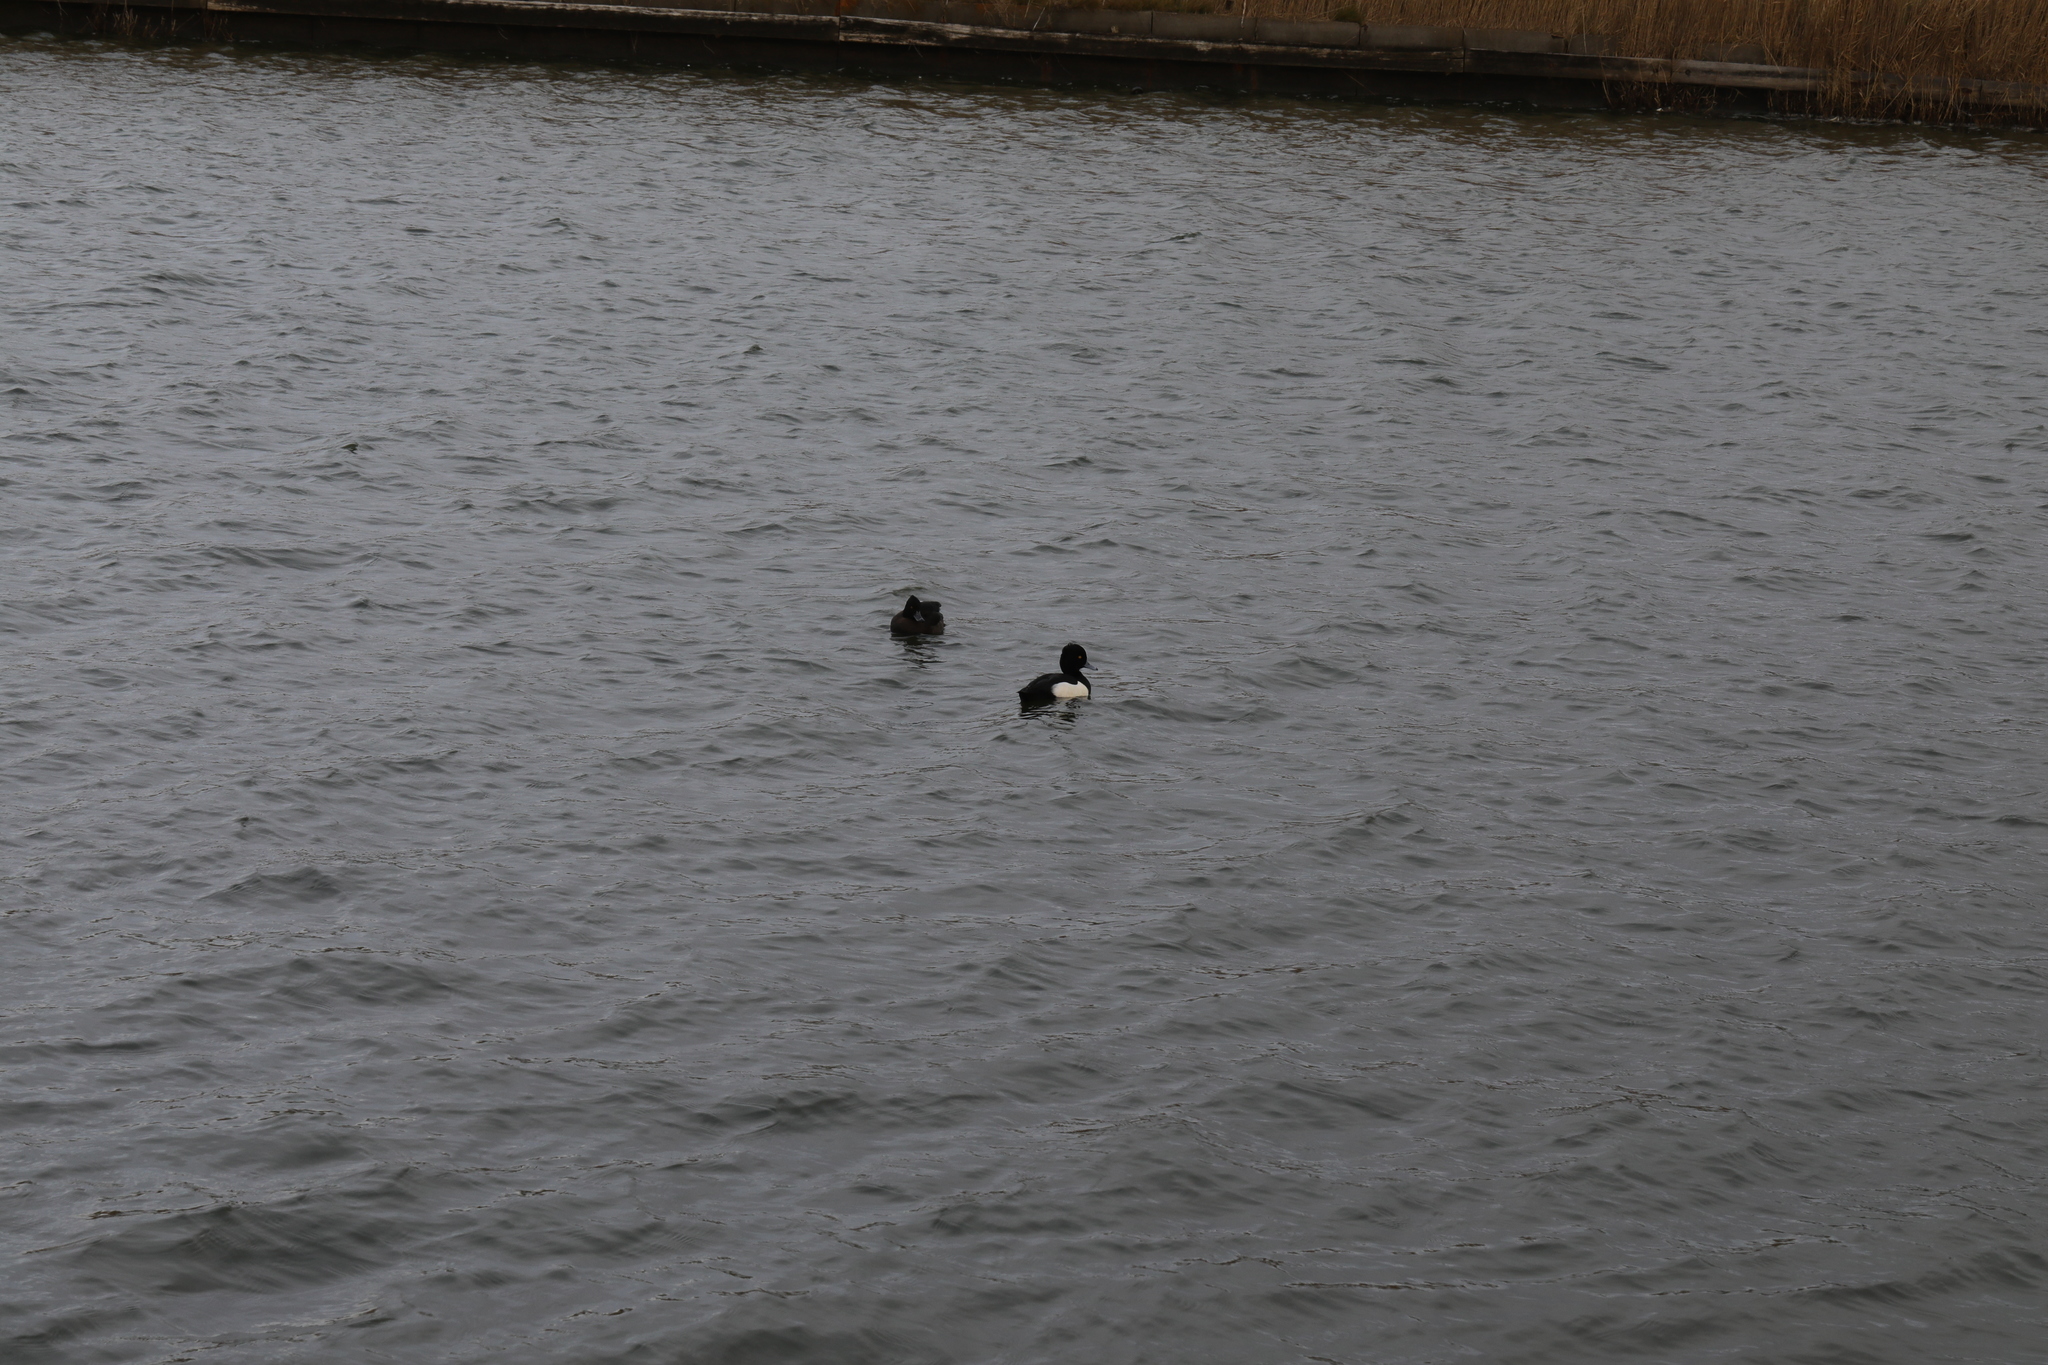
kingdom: Animalia
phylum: Chordata
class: Aves
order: Anseriformes
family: Anatidae
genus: Aythya
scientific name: Aythya fuligula
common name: Tufted duck
